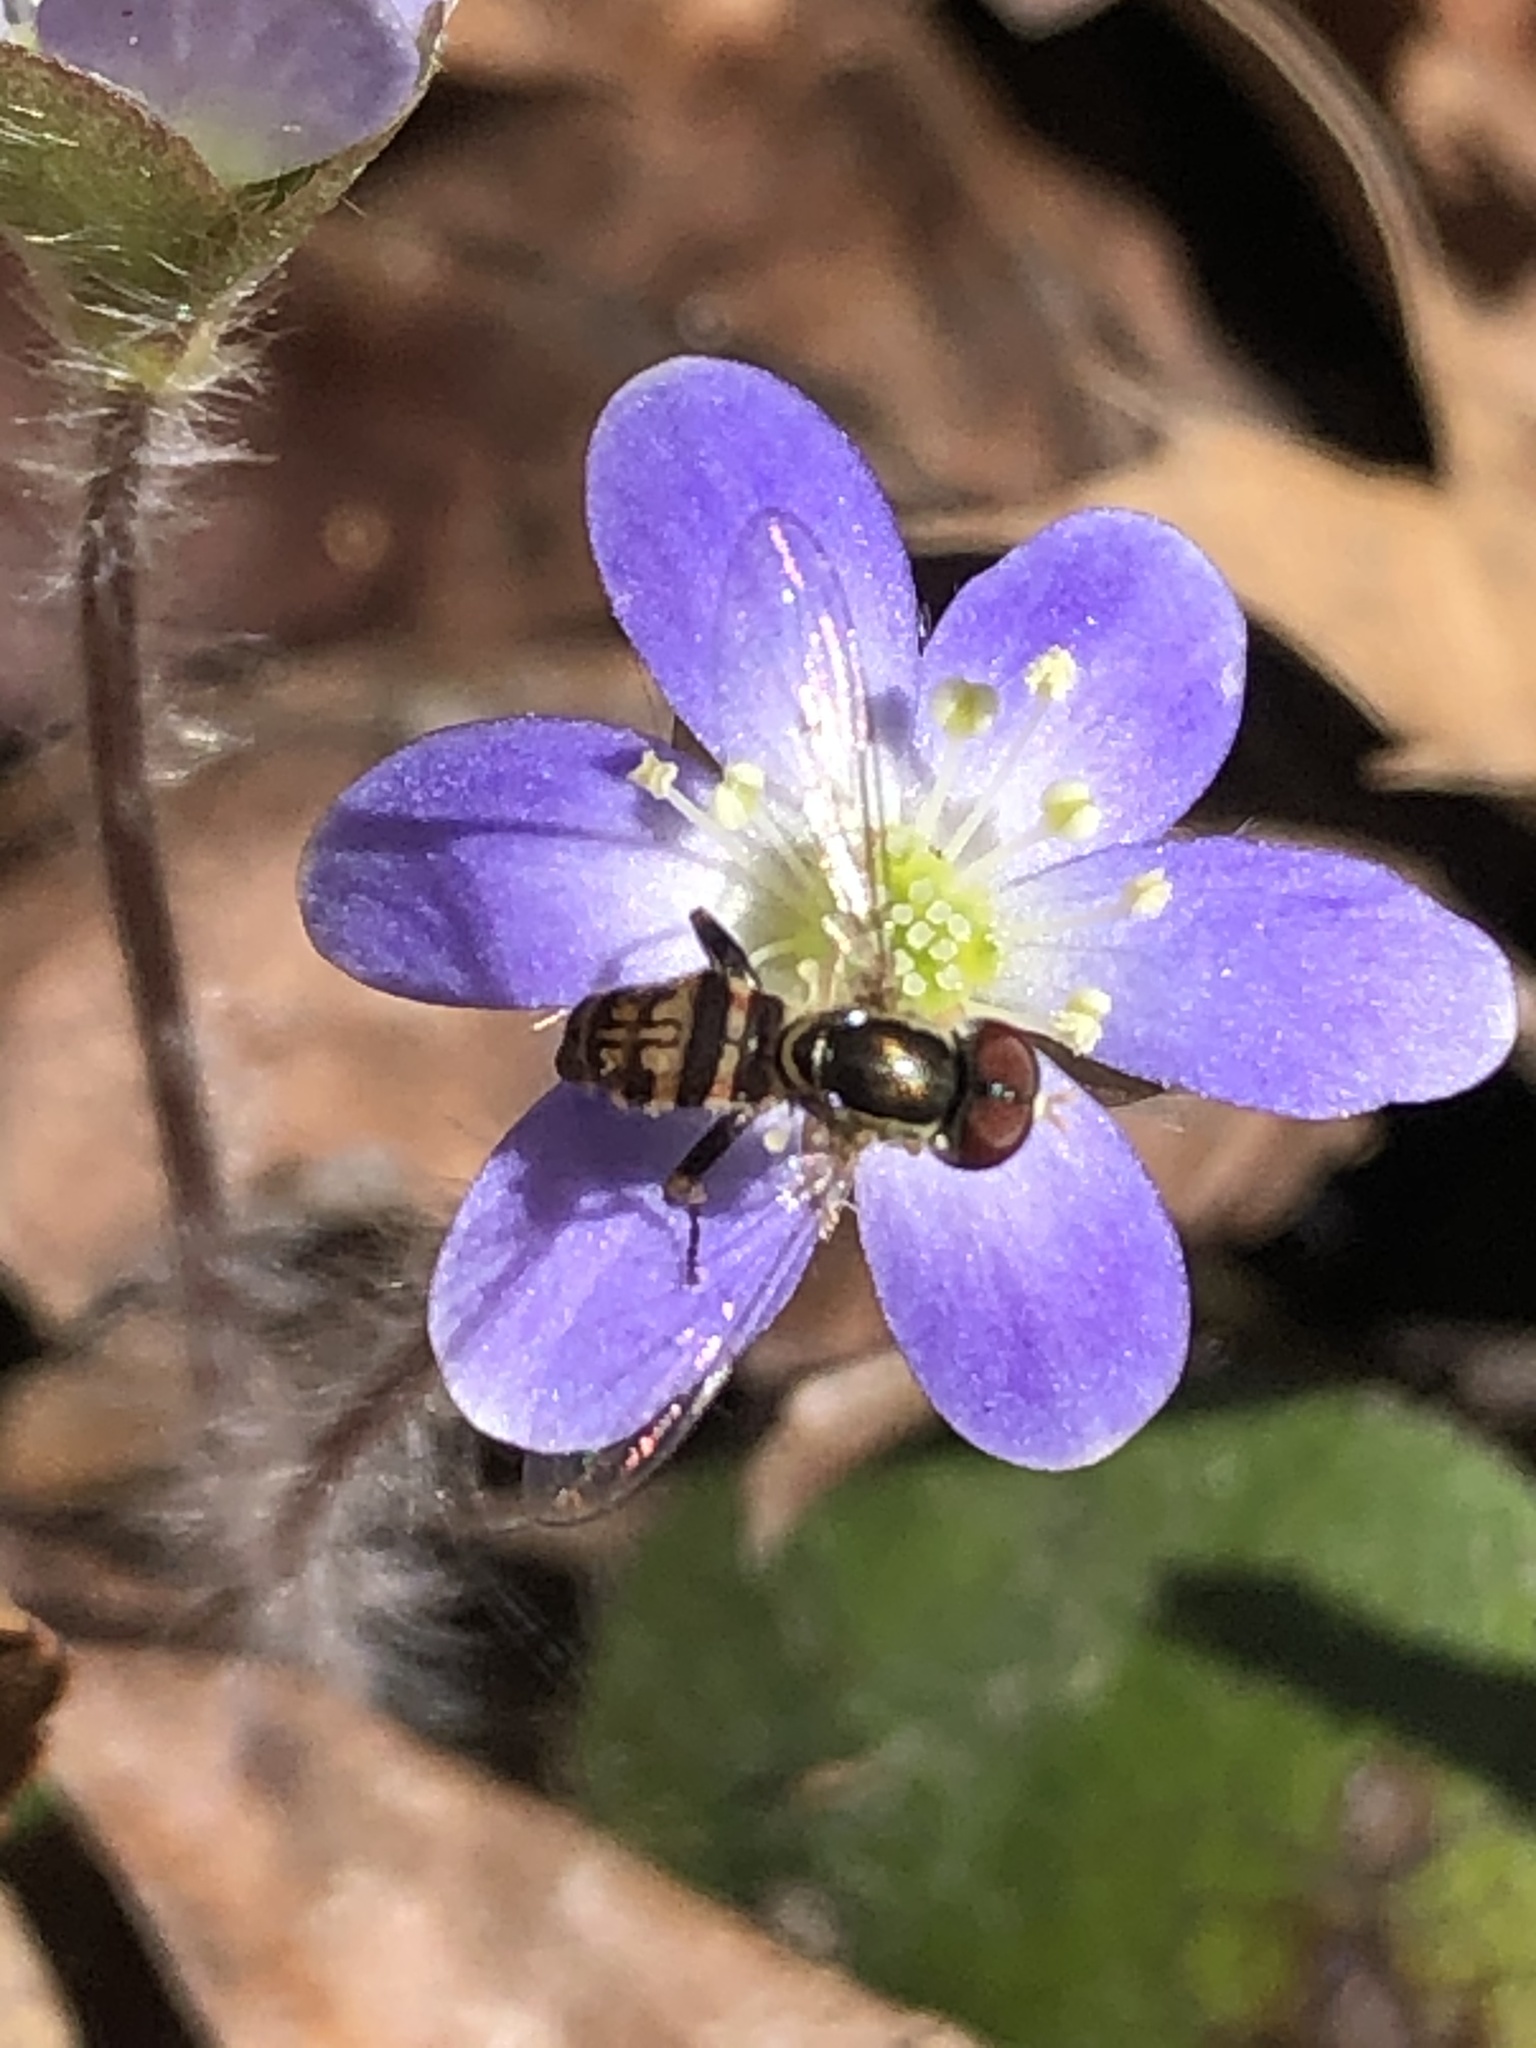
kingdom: Animalia
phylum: Arthropoda
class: Insecta
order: Diptera
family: Syrphidae
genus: Toxomerus
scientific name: Toxomerus geminatus
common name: Eastern calligrapher
